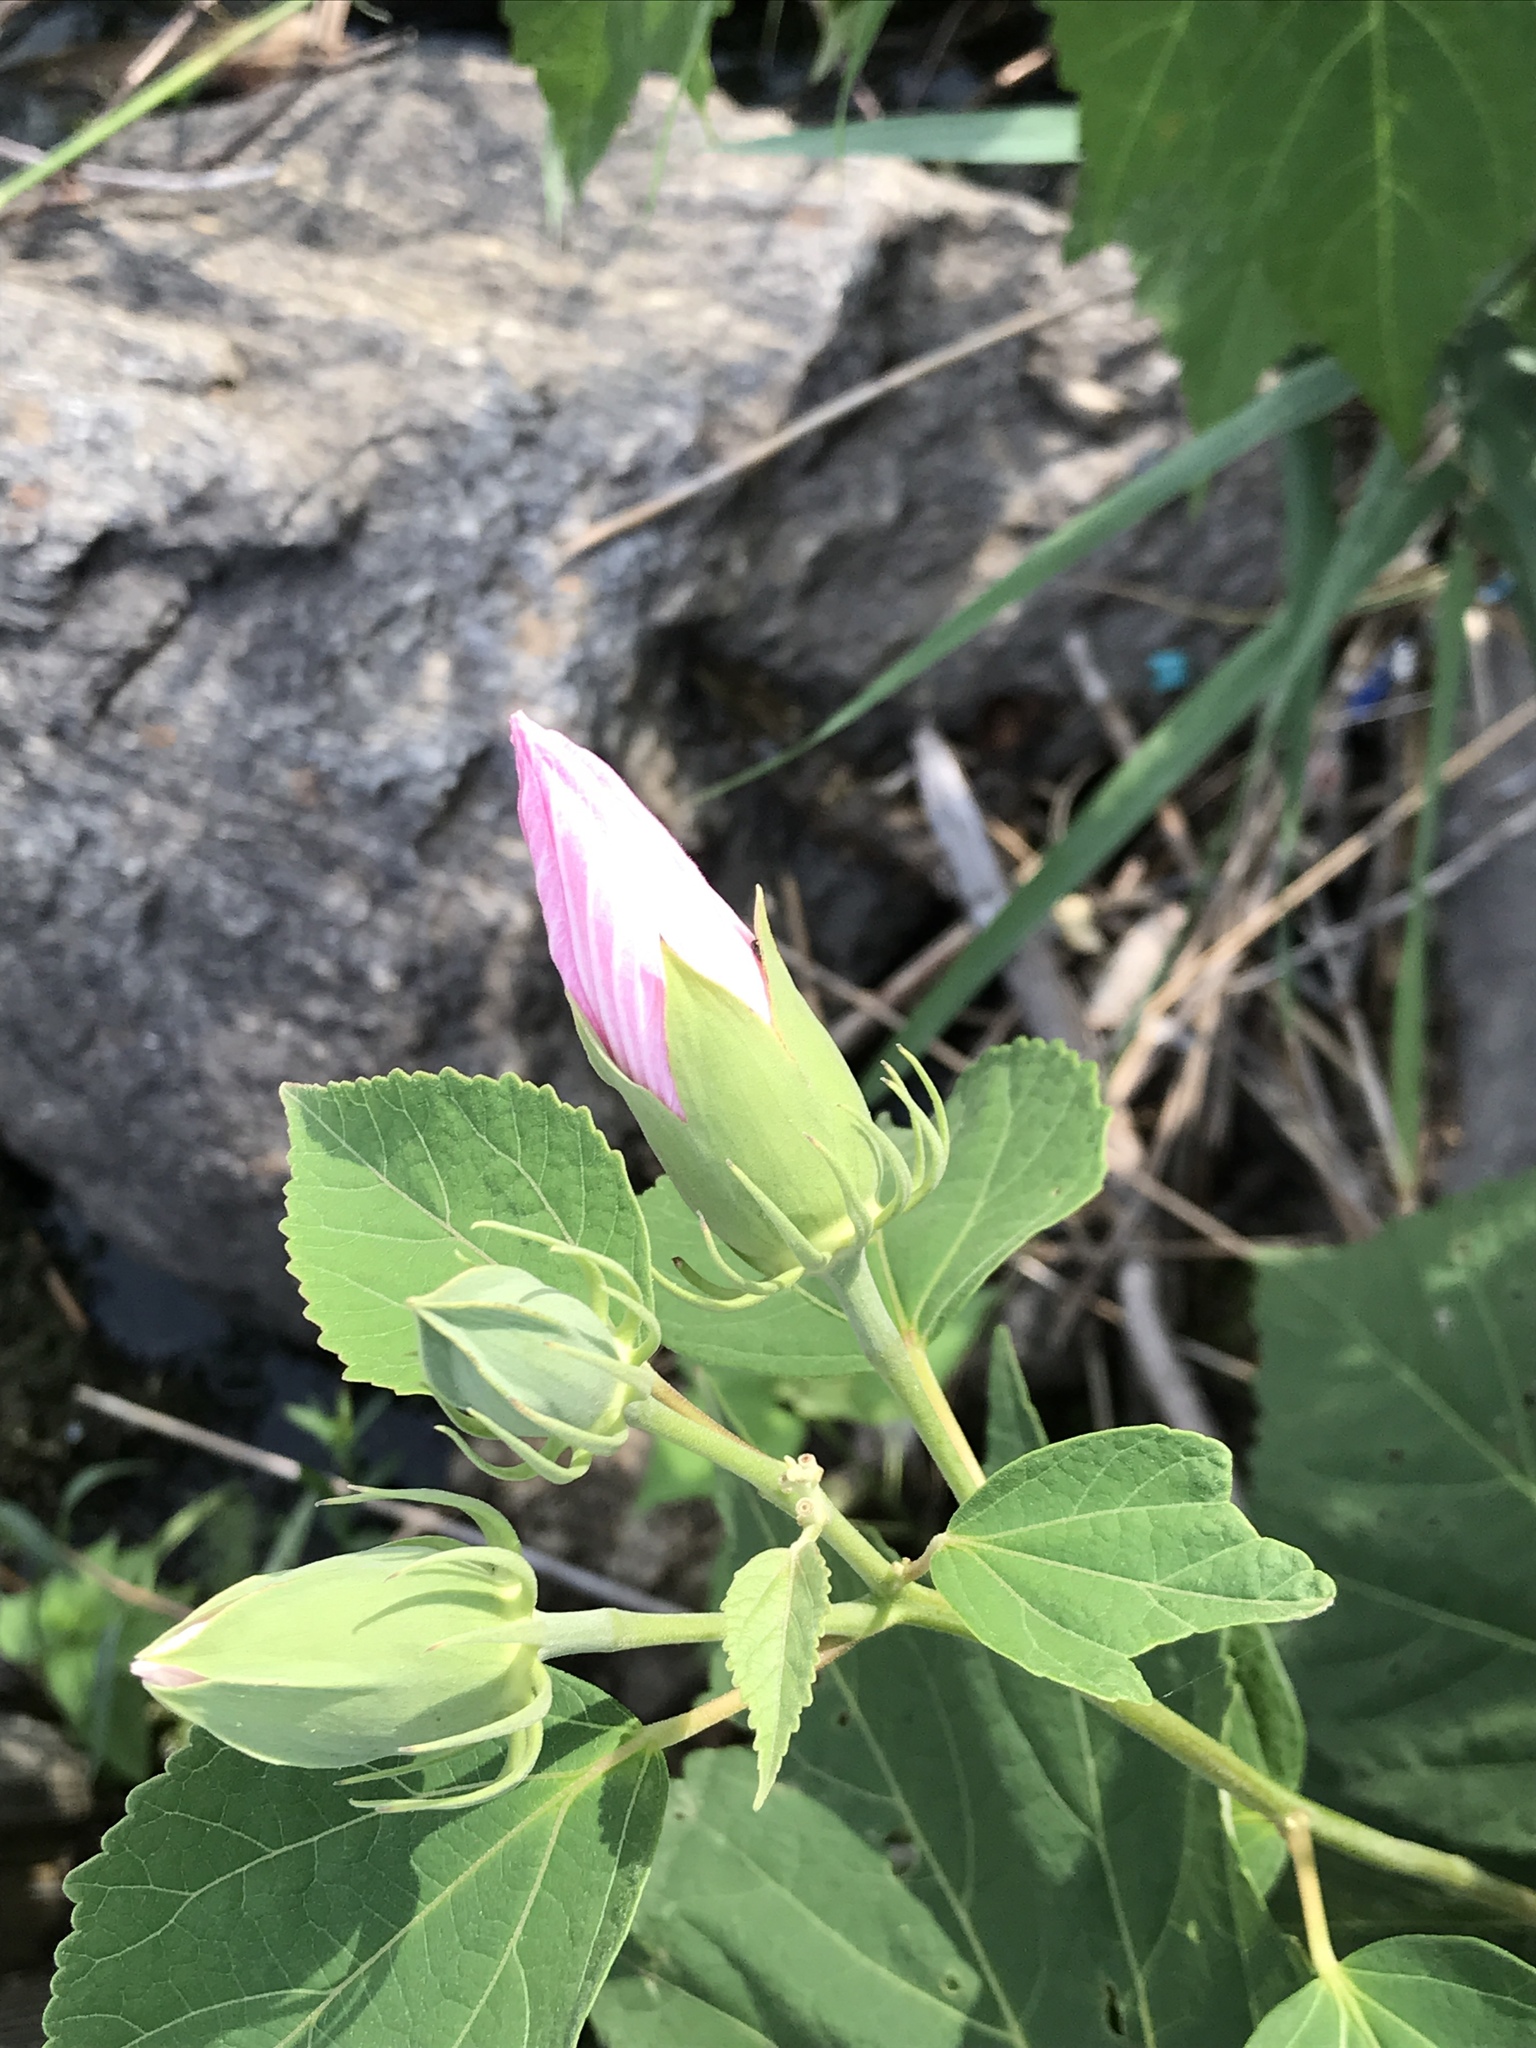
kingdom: Plantae
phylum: Tracheophyta
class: Magnoliopsida
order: Malvales
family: Malvaceae
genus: Hibiscus
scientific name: Hibiscus moscheutos
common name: Common rose-mallow
